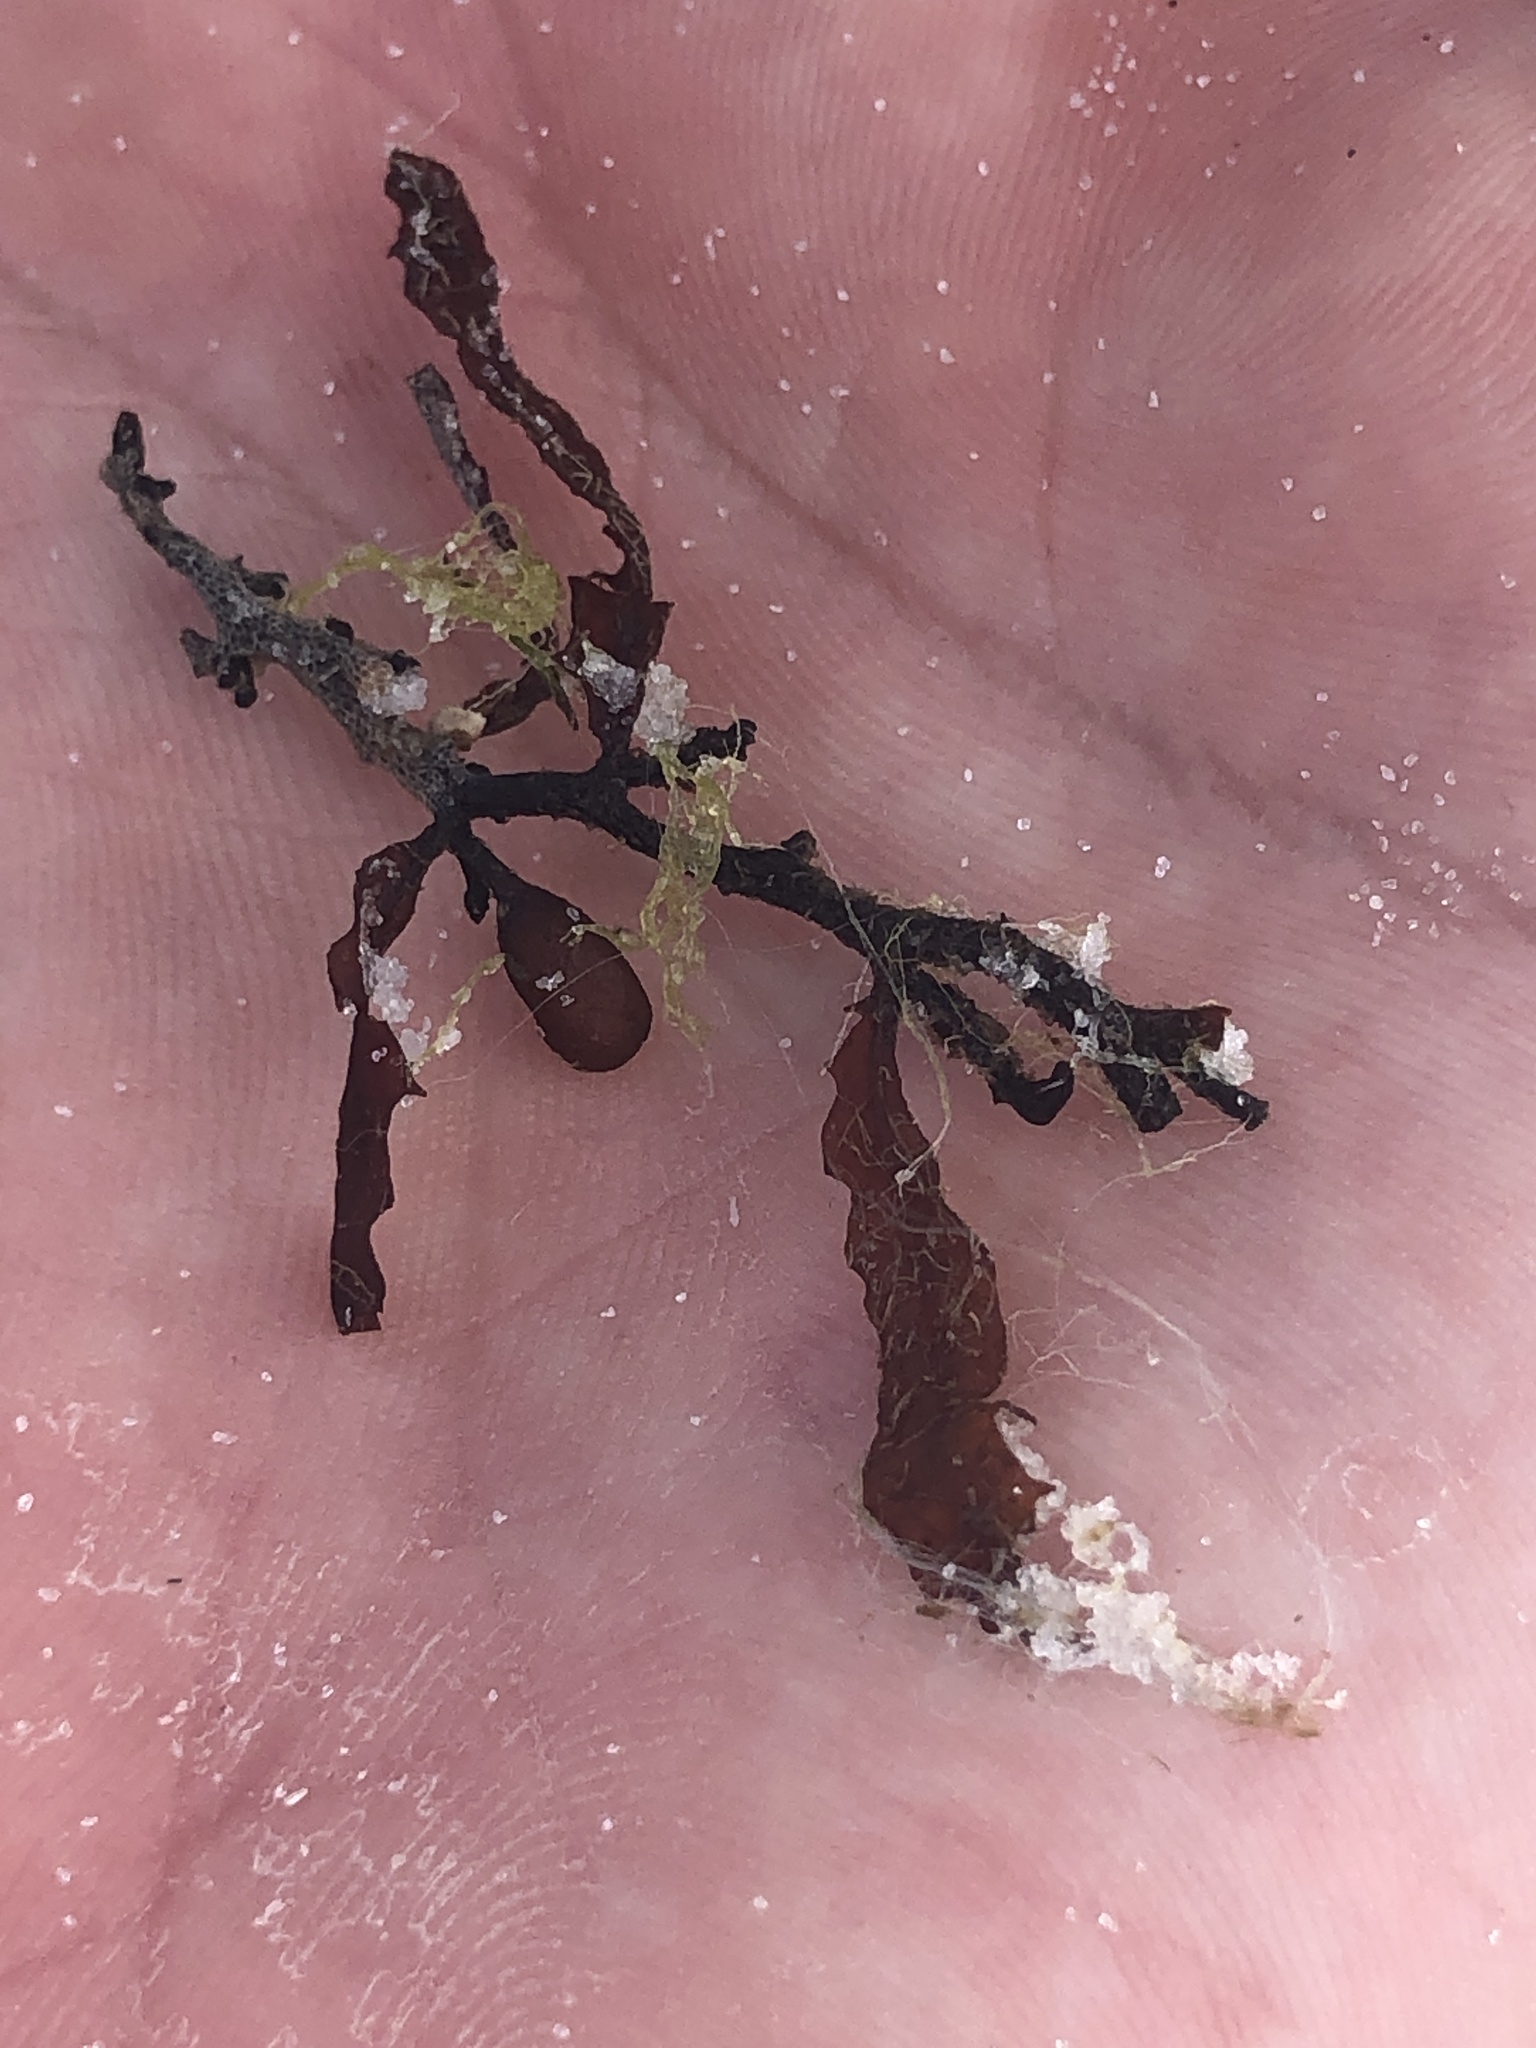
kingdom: Chromista
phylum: Ochrophyta
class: Phaeophyceae
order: Fucales
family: Sargassaceae
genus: Sargassum
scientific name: Sargassum fluitans
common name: Sargassum seaweed
